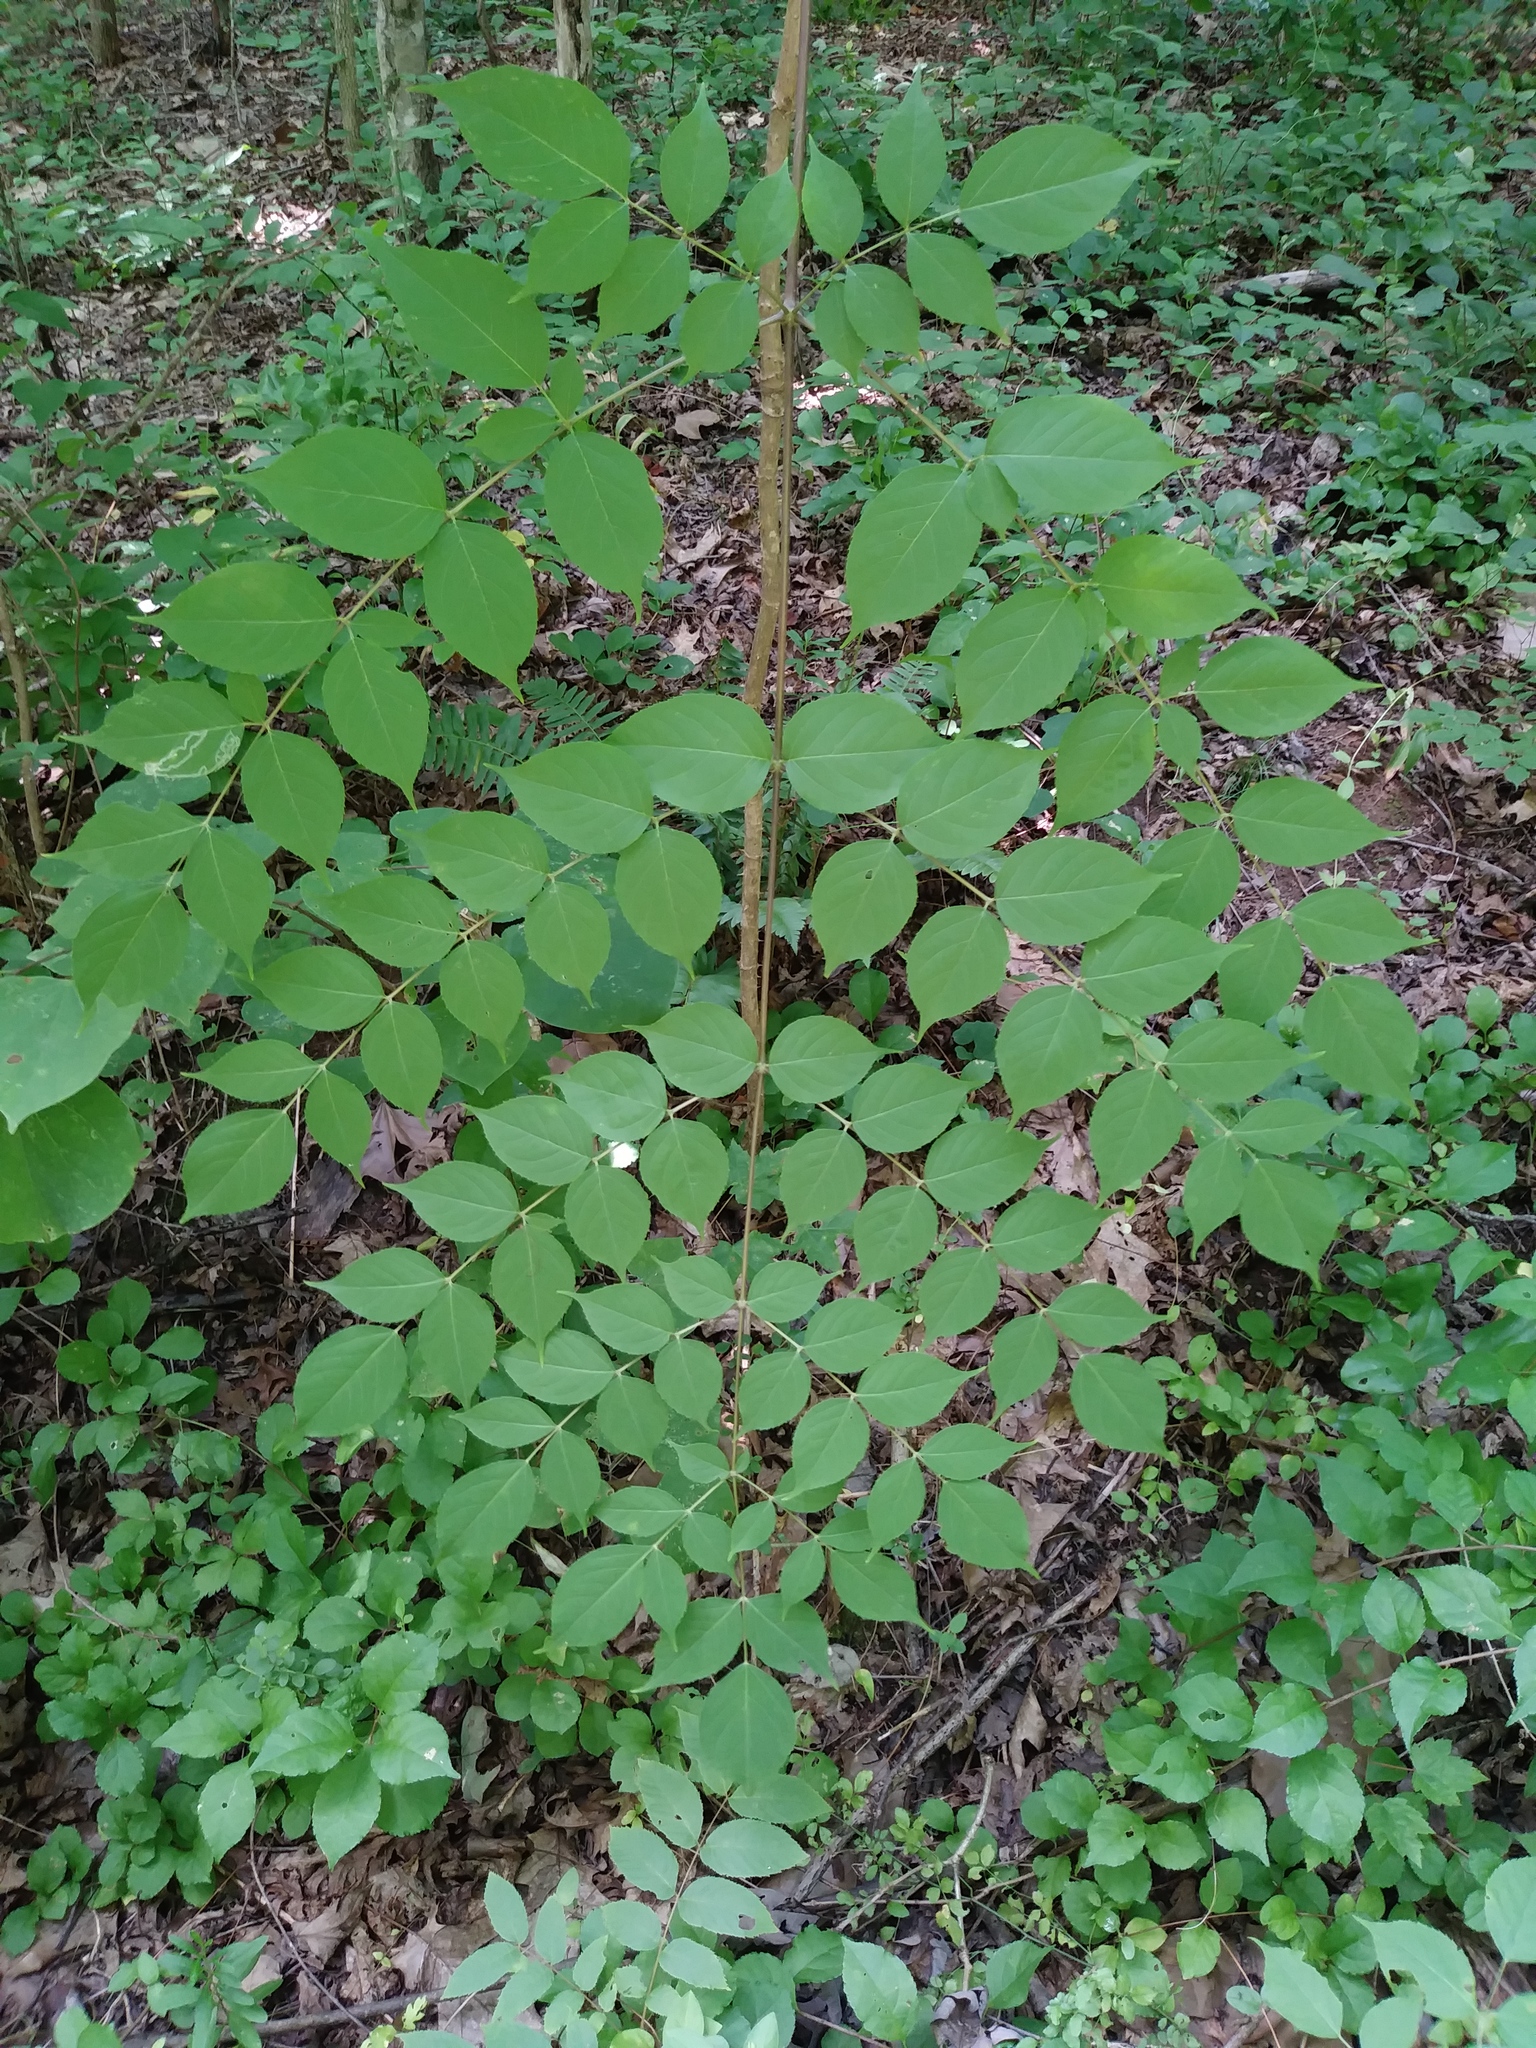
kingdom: Plantae
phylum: Tracheophyta
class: Magnoliopsida
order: Apiales
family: Araliaceae
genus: Aralia
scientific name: Aralia spinosa
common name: Hercules'-club
